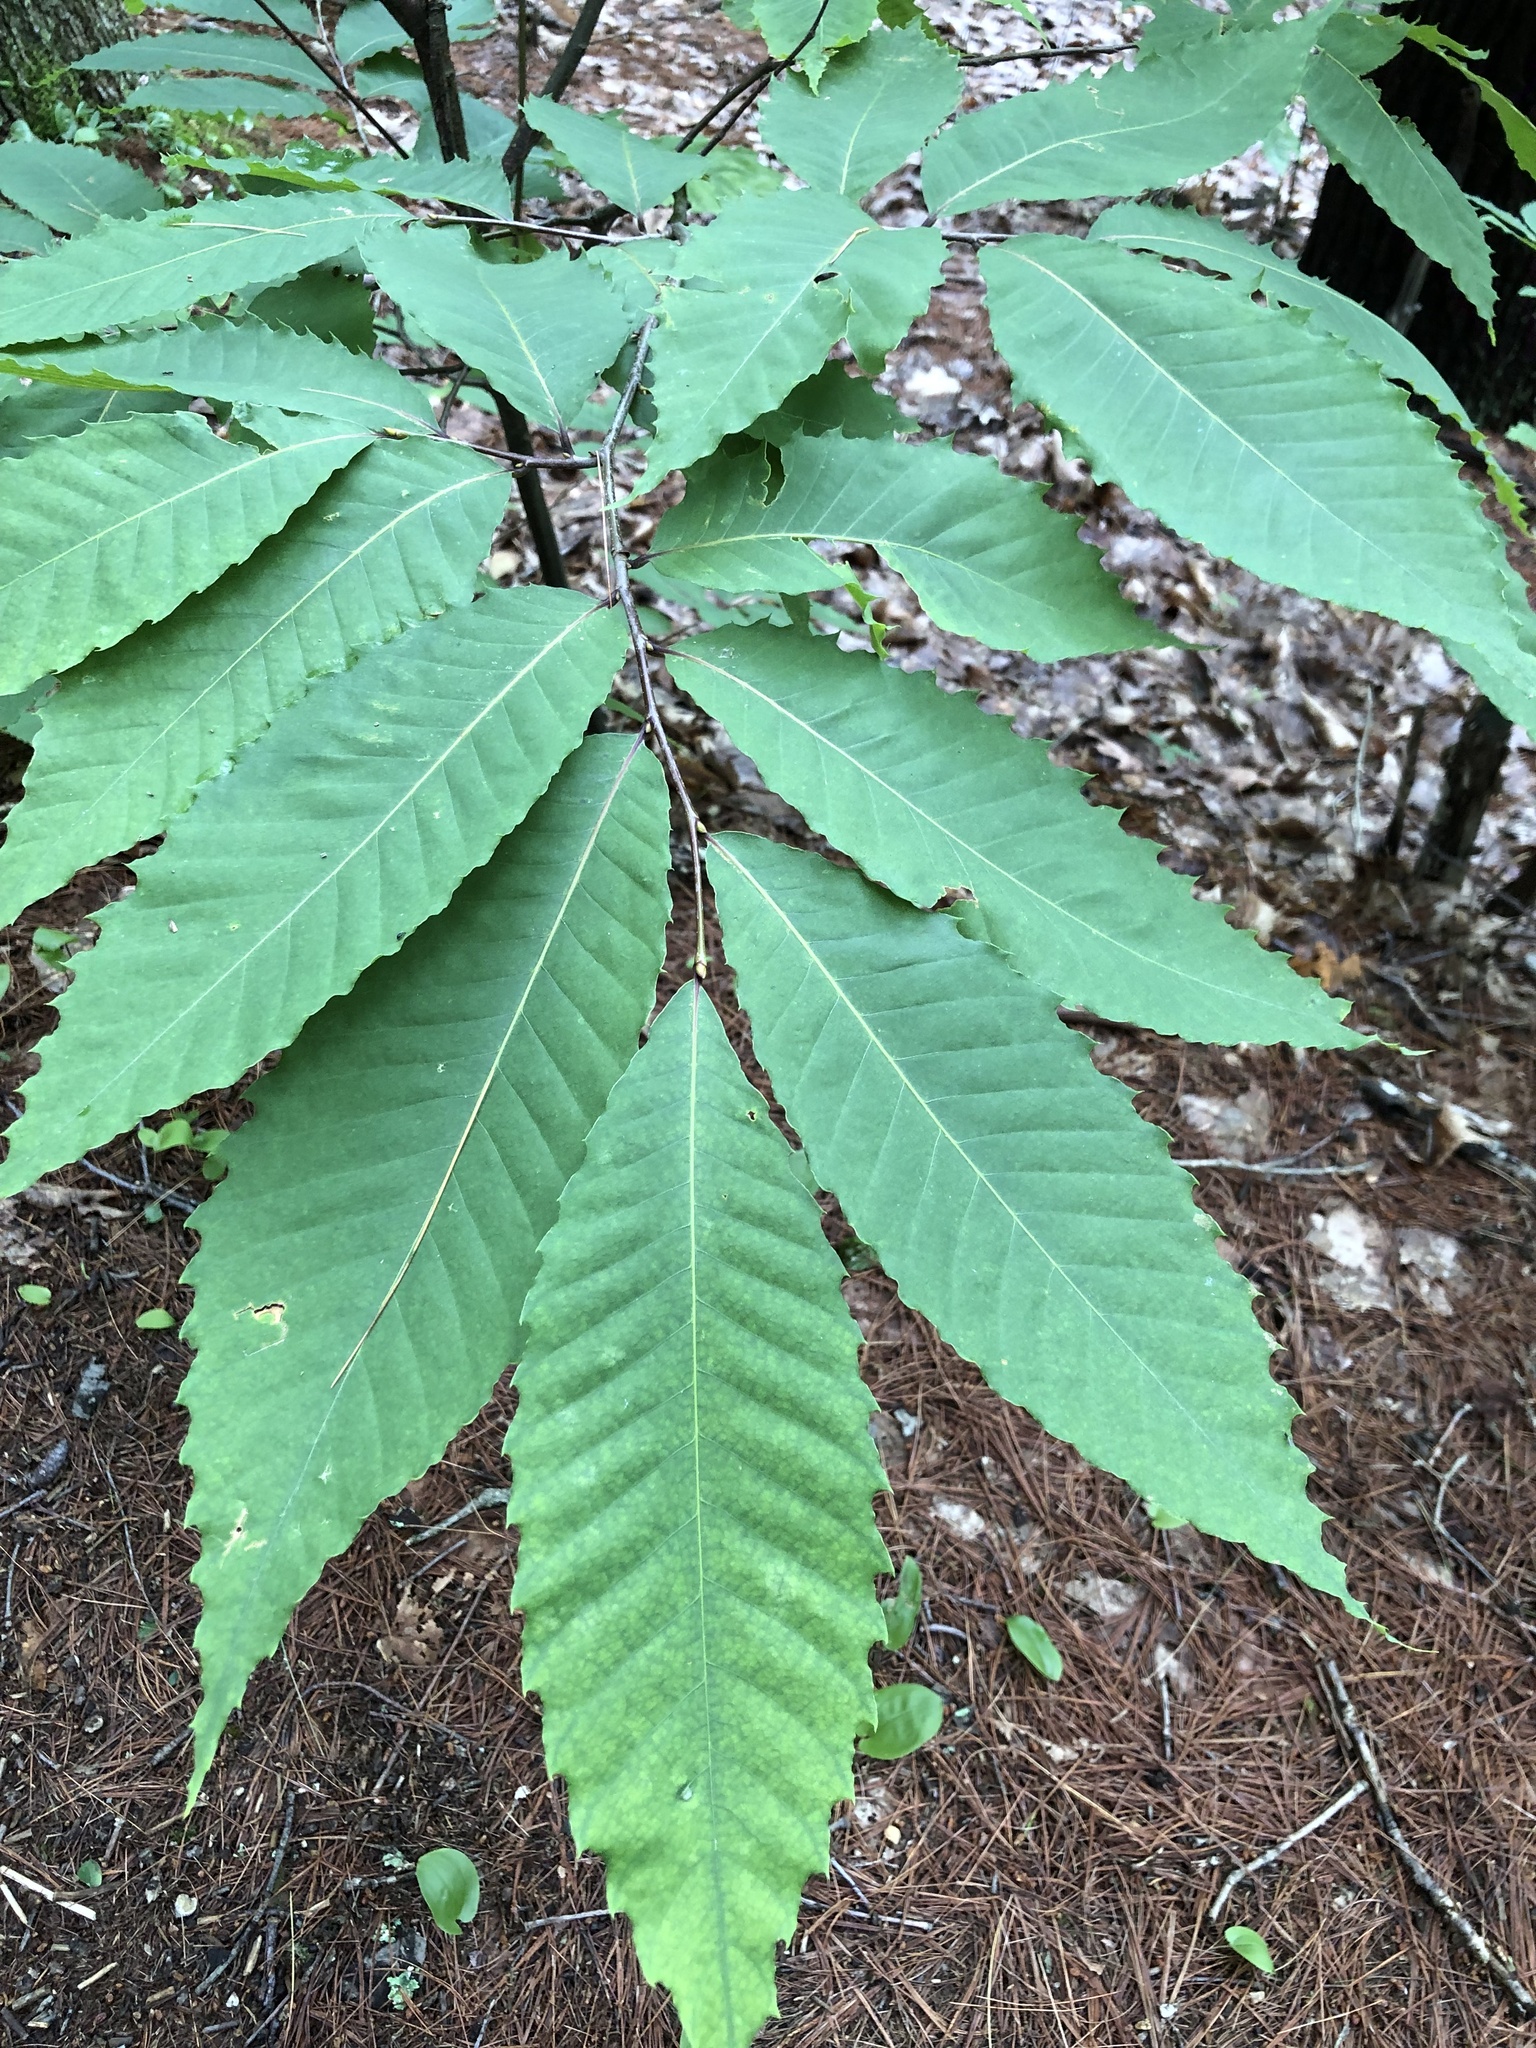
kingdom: Plantae
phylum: Tracheophyta
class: Magnoliopsida
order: Fagales
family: Fagaceae
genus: Castanea
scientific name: Castanea dentata
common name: American chestnut
